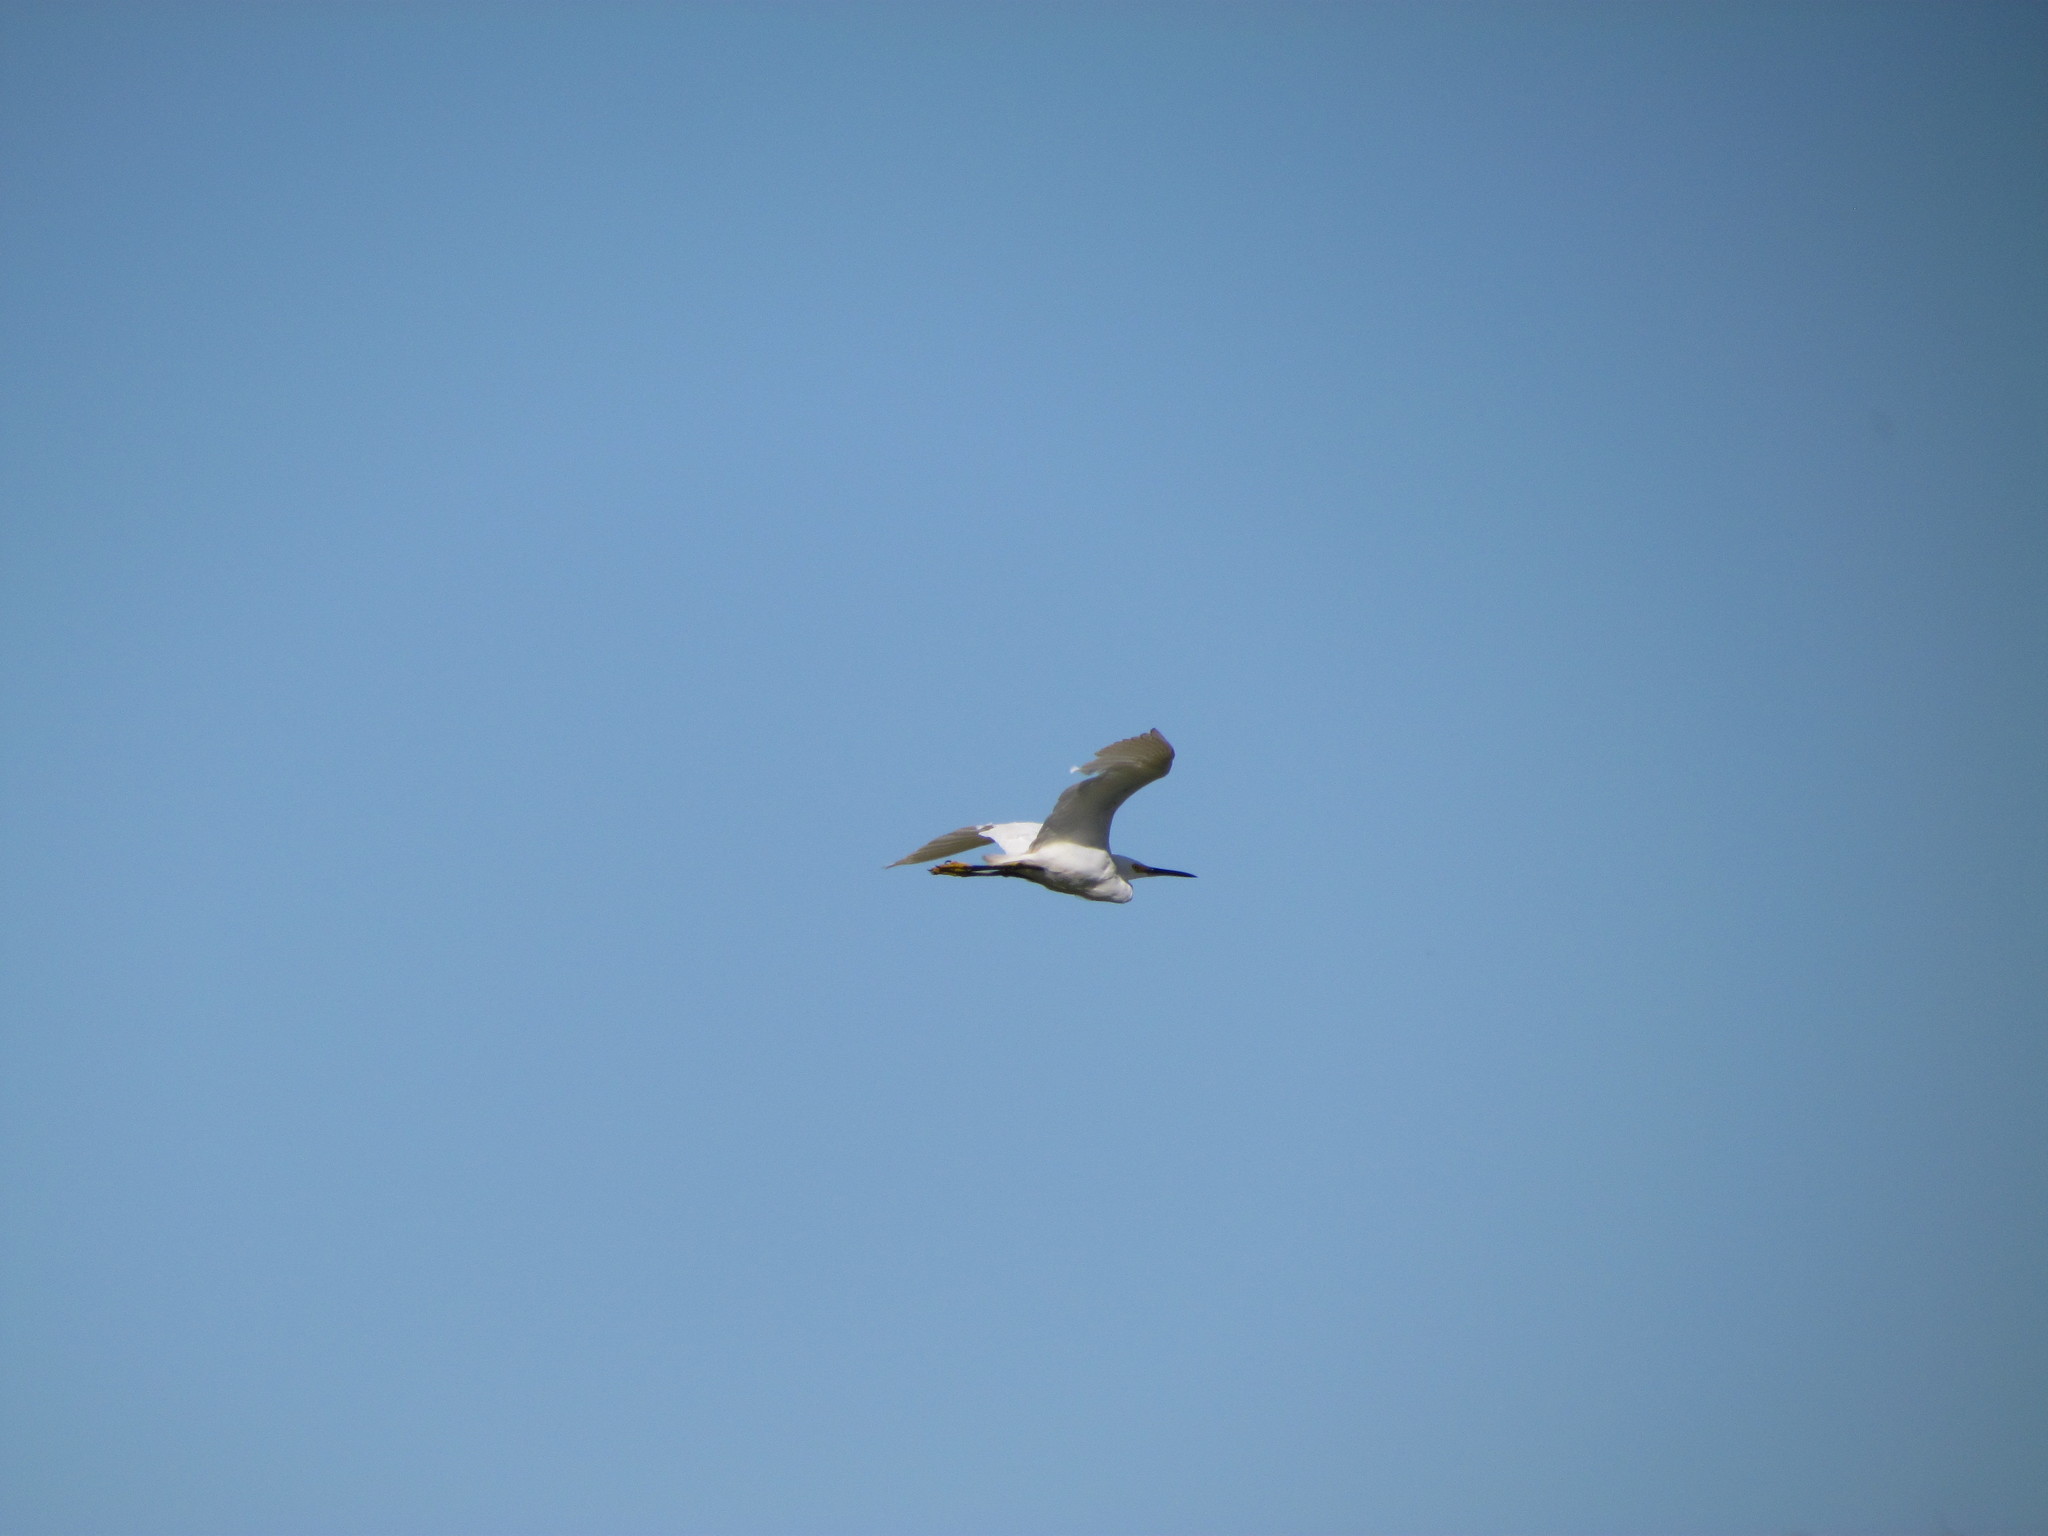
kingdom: Animalia
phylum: Chordata
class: Aves
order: Pelecaniformes
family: Ardeidae
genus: Egretta
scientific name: Egretta thula
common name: Snowy egret
